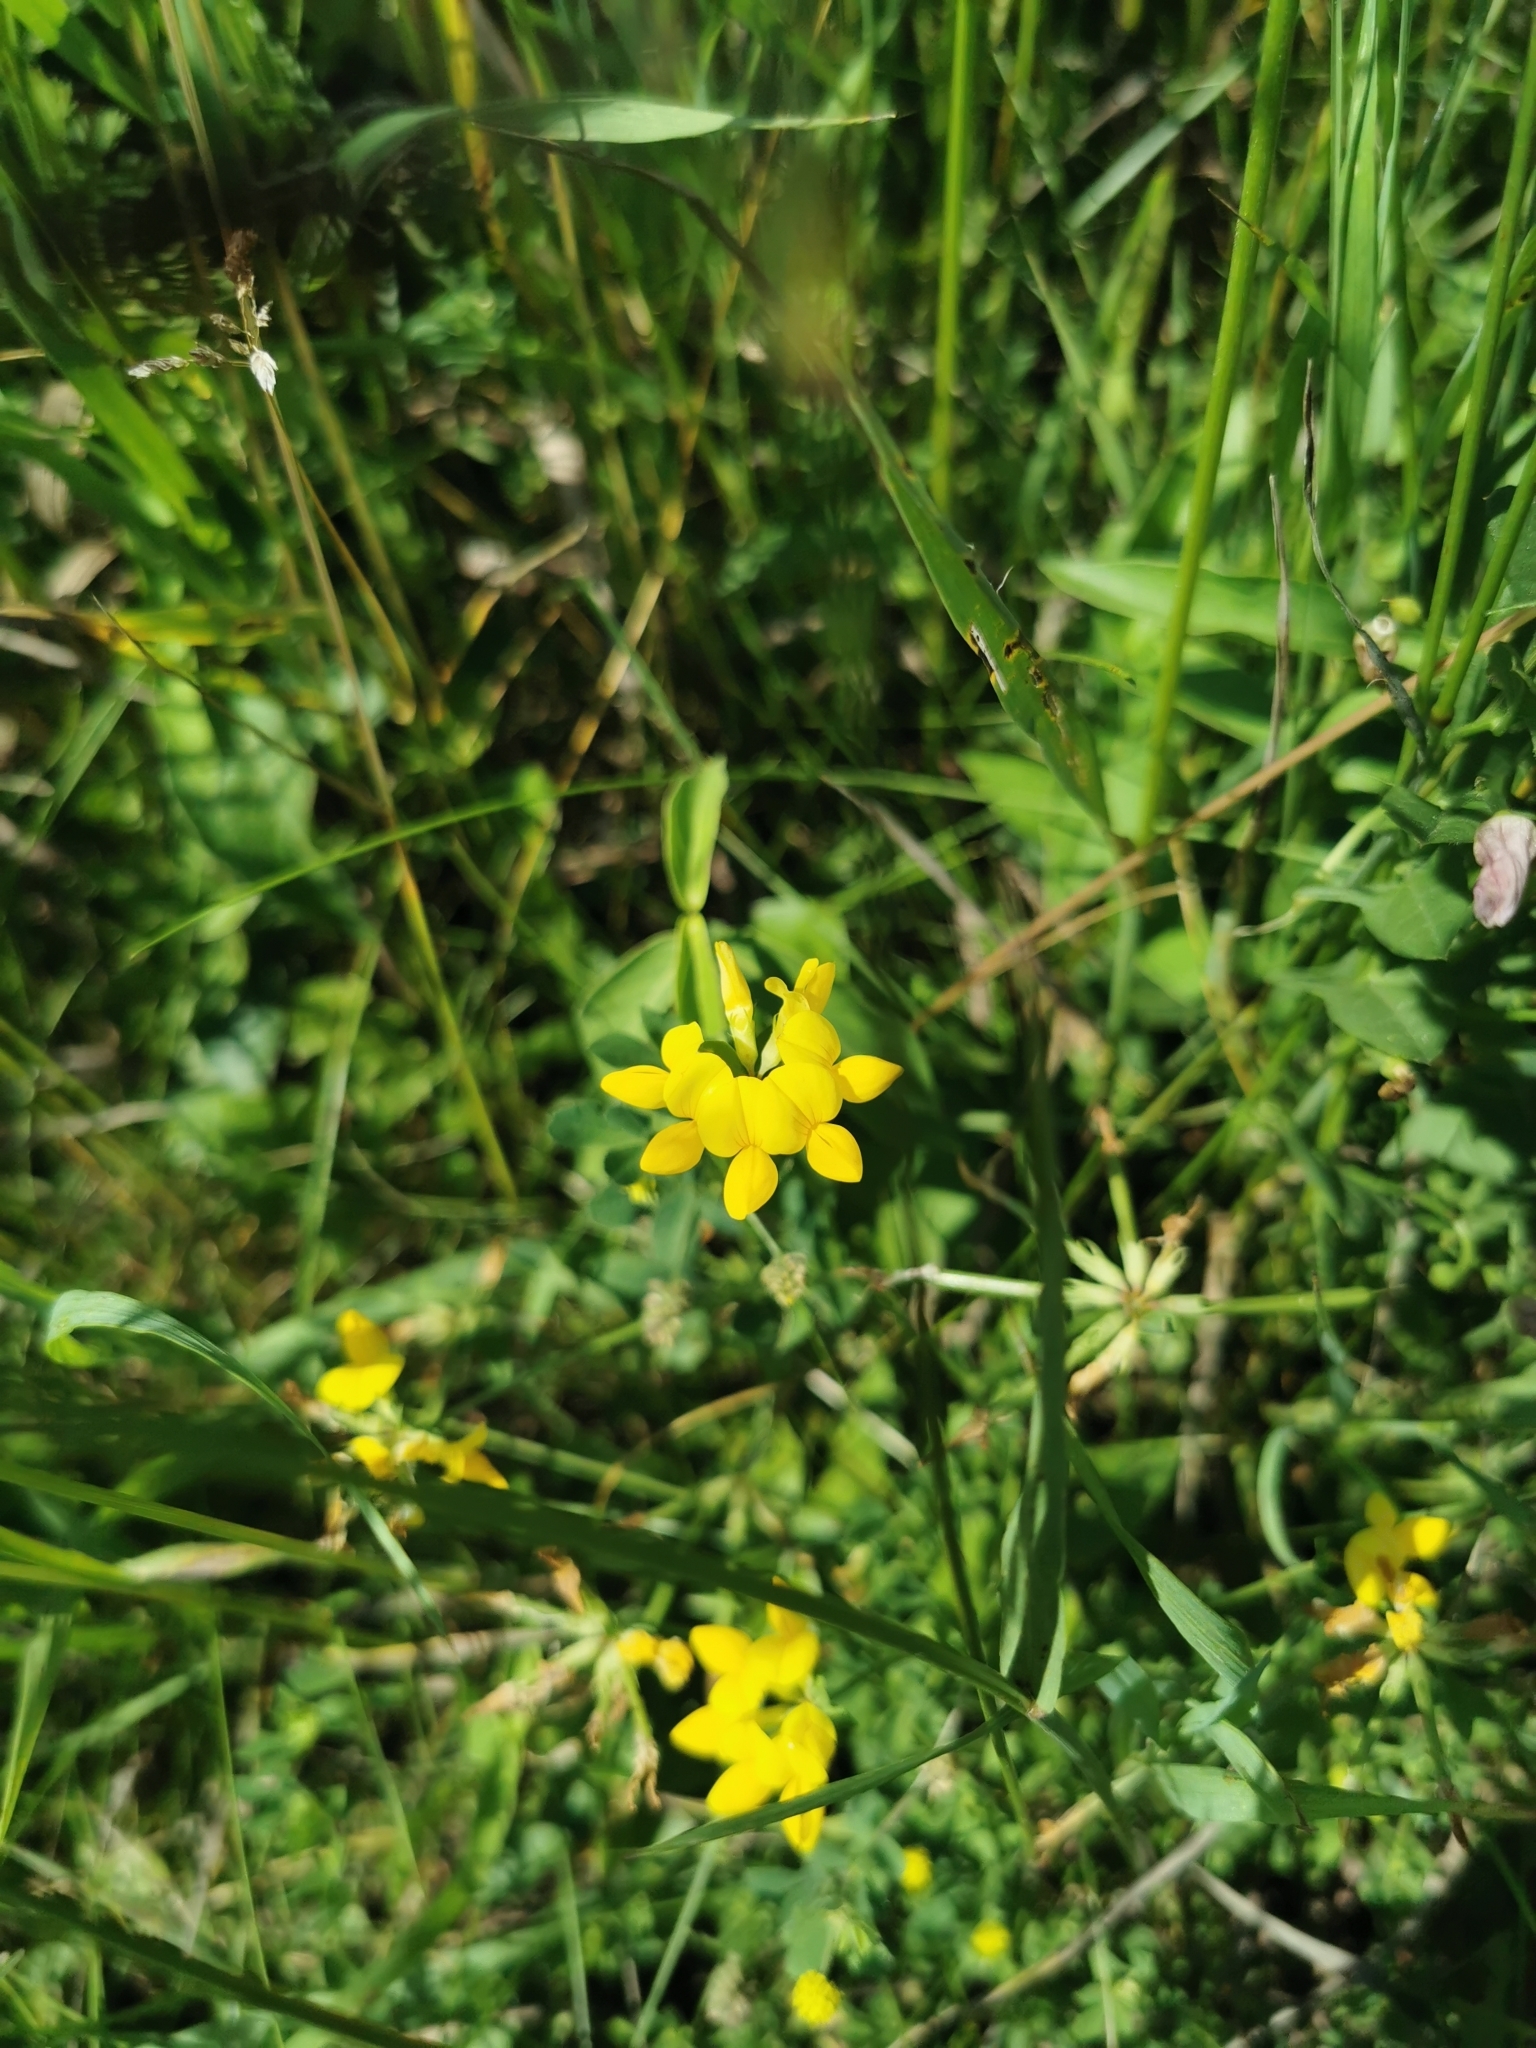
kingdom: Plantae
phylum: Tracheophyta
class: Magnoliopsida
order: Fabales
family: Fabaceae
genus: Lotus
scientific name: Lotus corniculatus
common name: Common bird's-foot-trefoil
